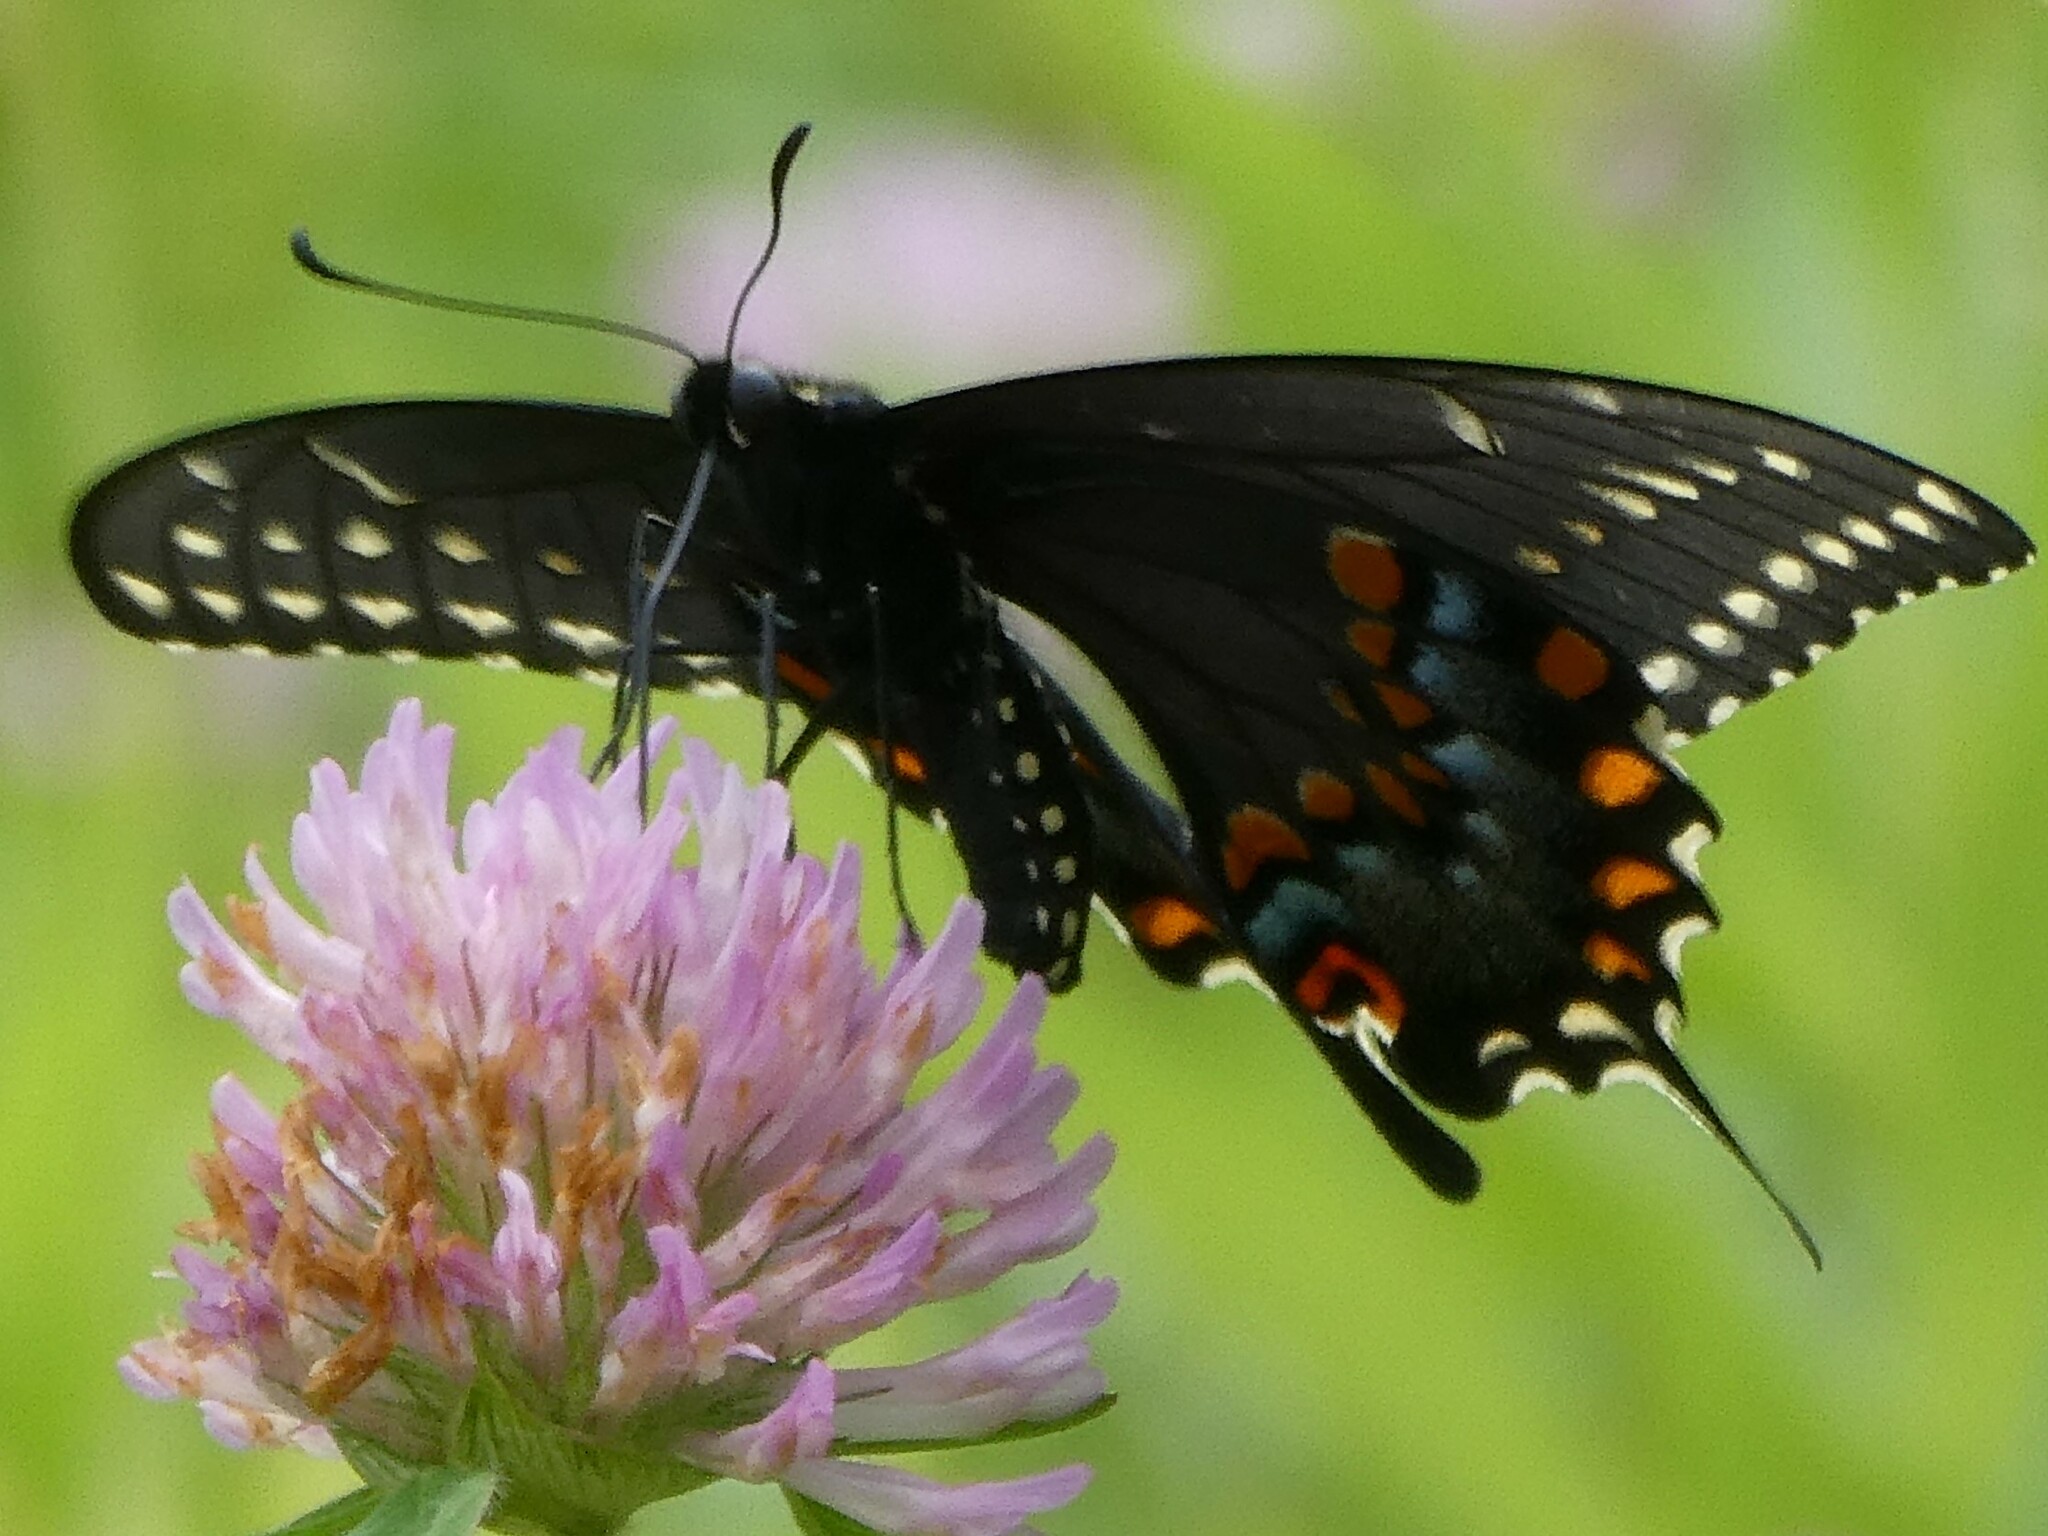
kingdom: Animalia
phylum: Arthropoda
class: Insecta
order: Lepidoptera
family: Papilionidae
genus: Papilio
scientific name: Papilio polyxenes
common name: Black swallowtail
